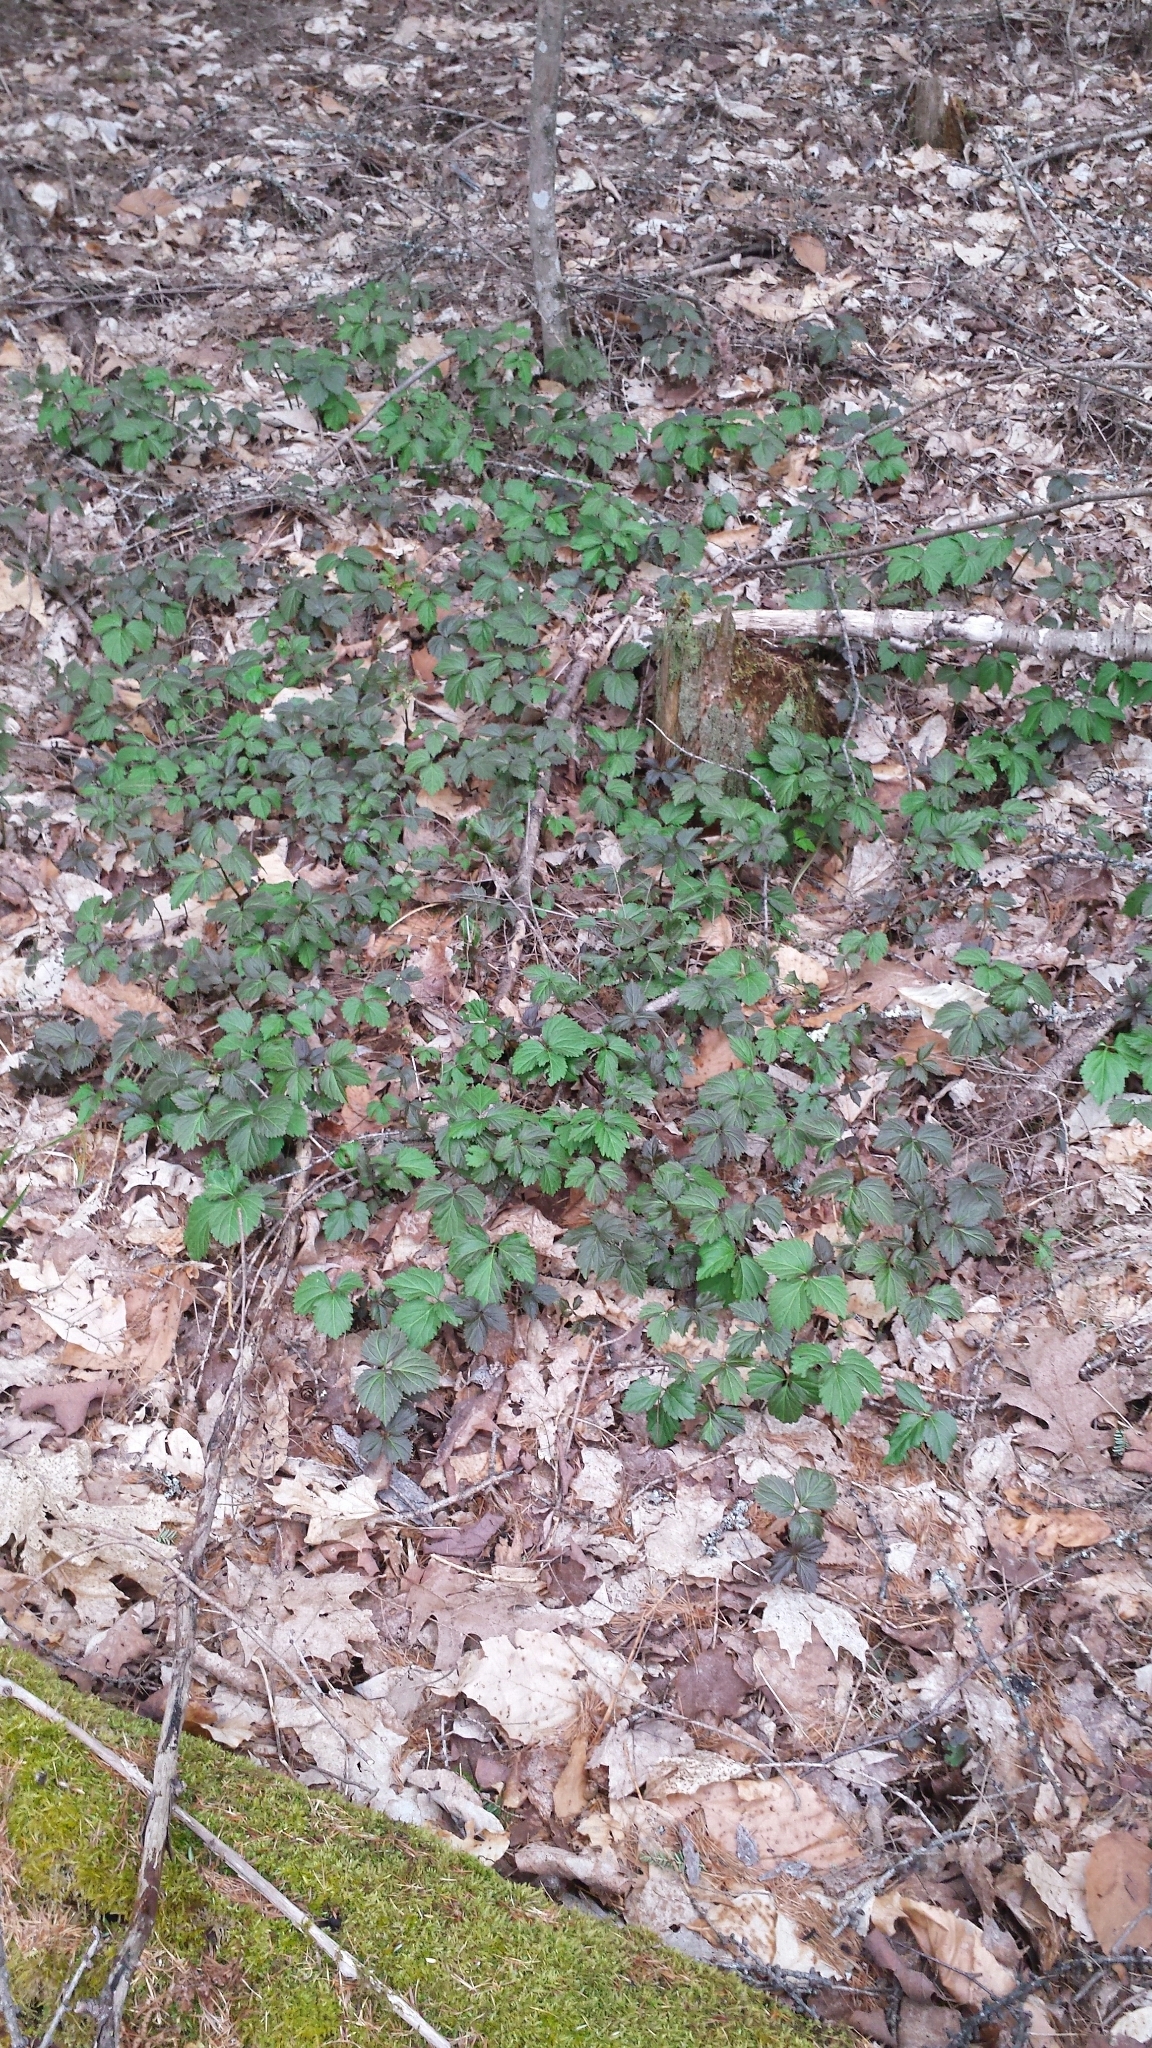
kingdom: Plantae
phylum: Tracheophyta
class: Magnoliopsida
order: Brassicales
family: Brassicaceae
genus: Cardamine
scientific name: Cardamine diphylla
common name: Broad-leaved toothwort
